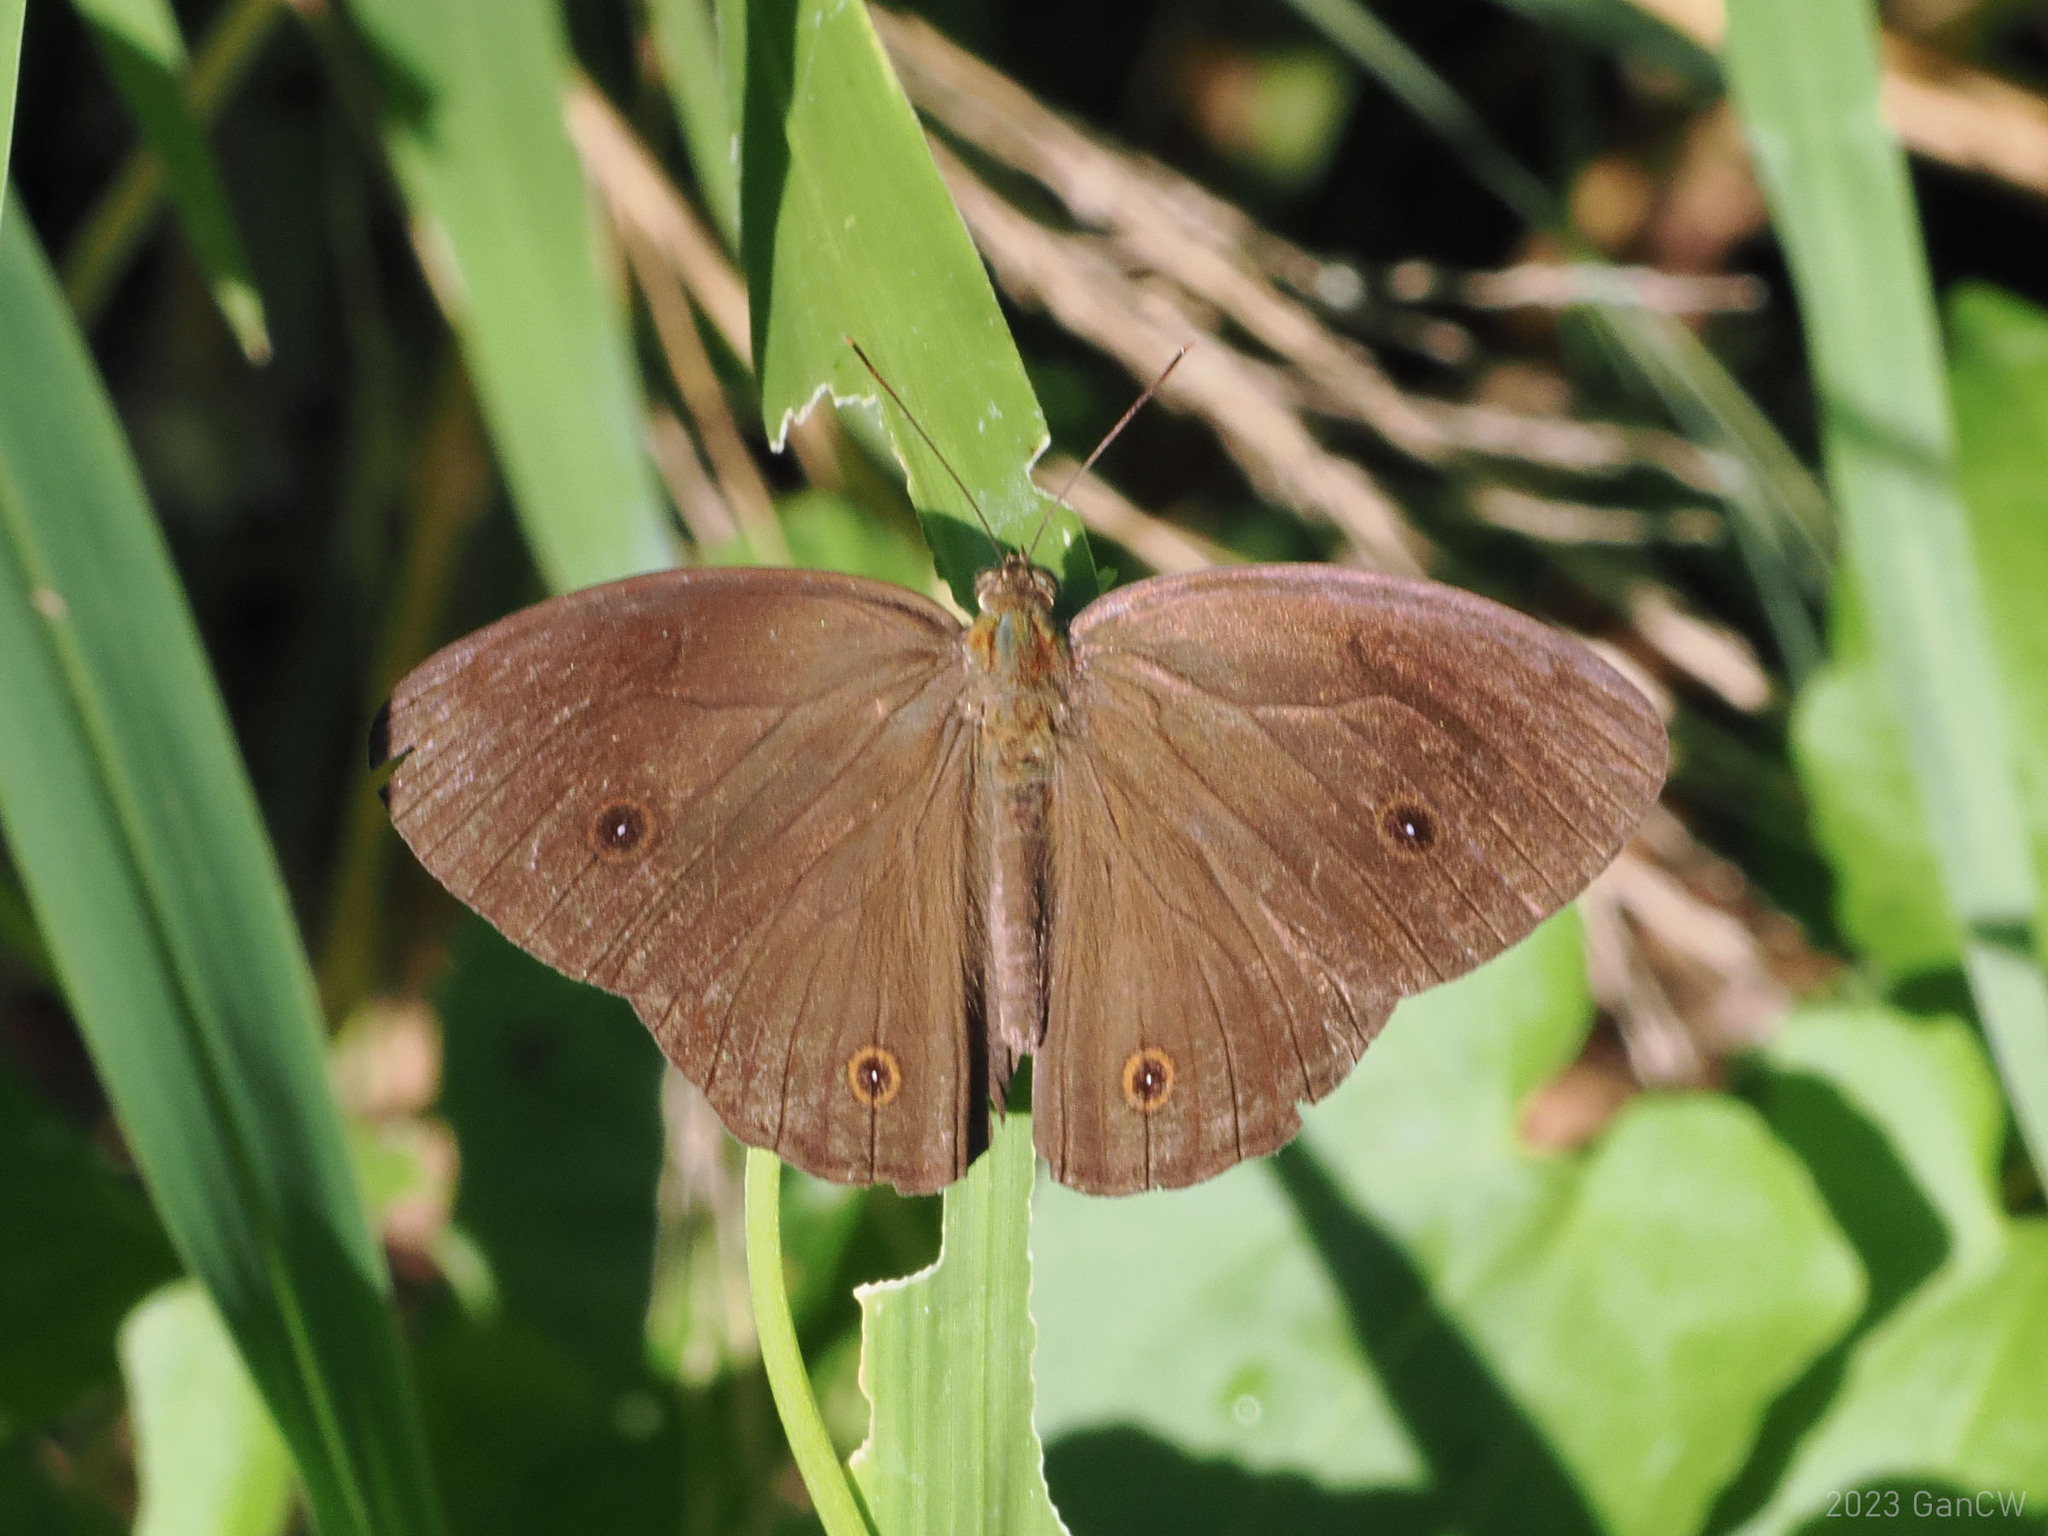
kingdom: Animalia
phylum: Arthropoda
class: Insecta
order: Lepidoptera
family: Nymphalidae
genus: Mycalesis
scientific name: Mycalesis tagala
